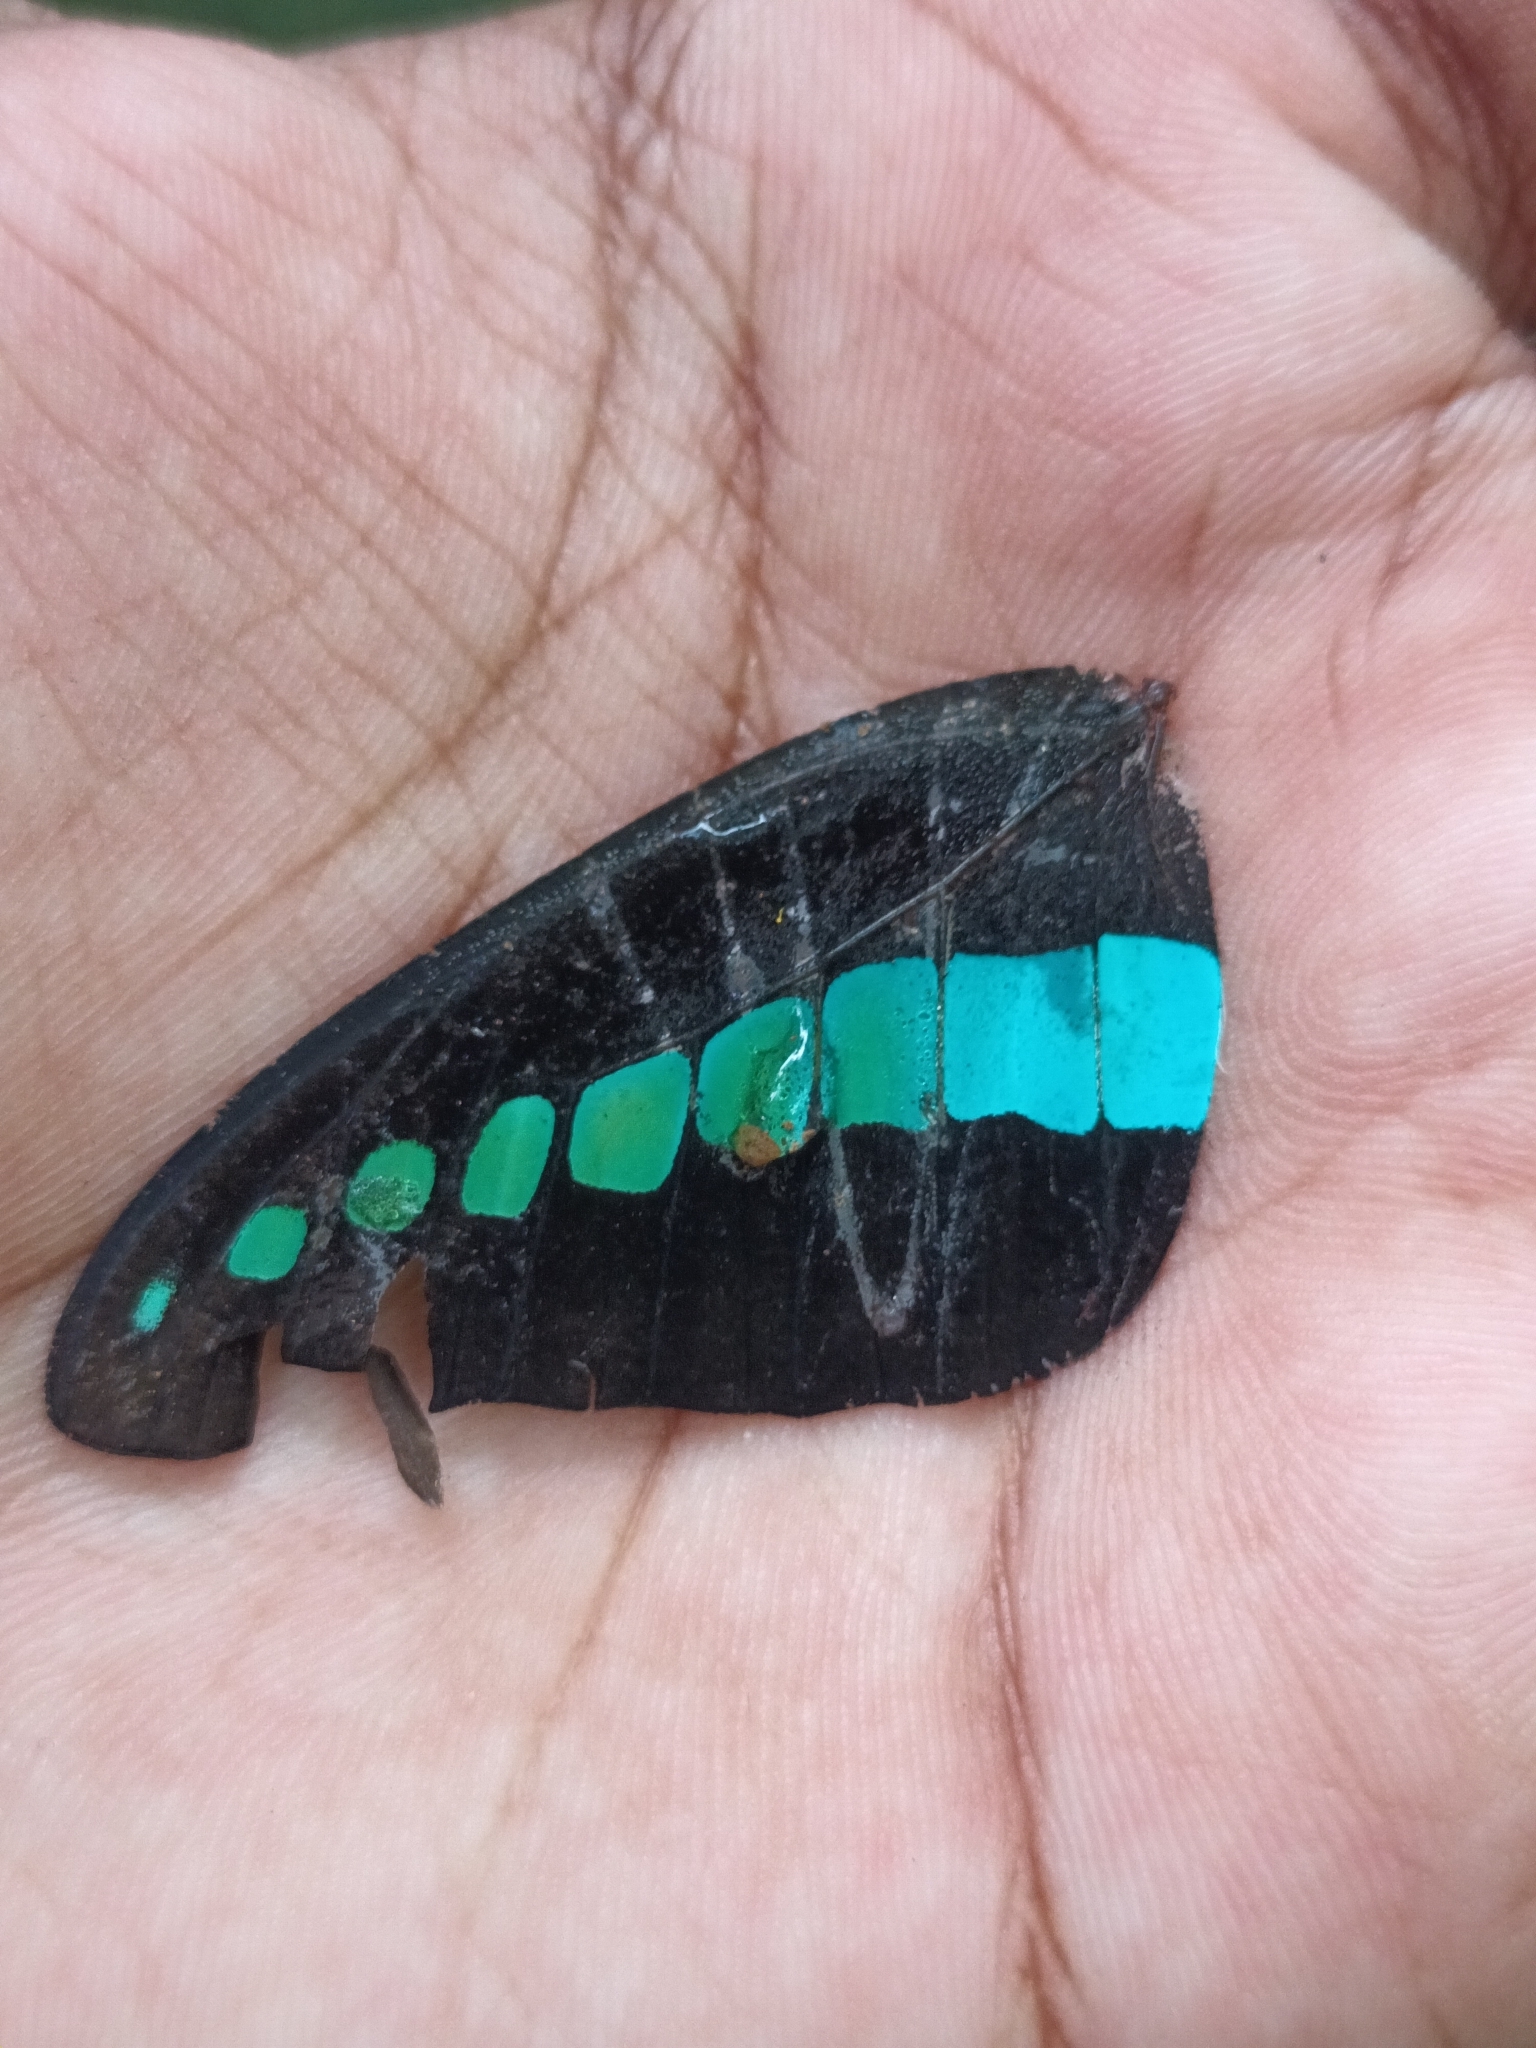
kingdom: Animalia
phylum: Arthropoda
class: Insecta
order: Lepidoptera
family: Papilionidae
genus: Graphium
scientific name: Graphium
